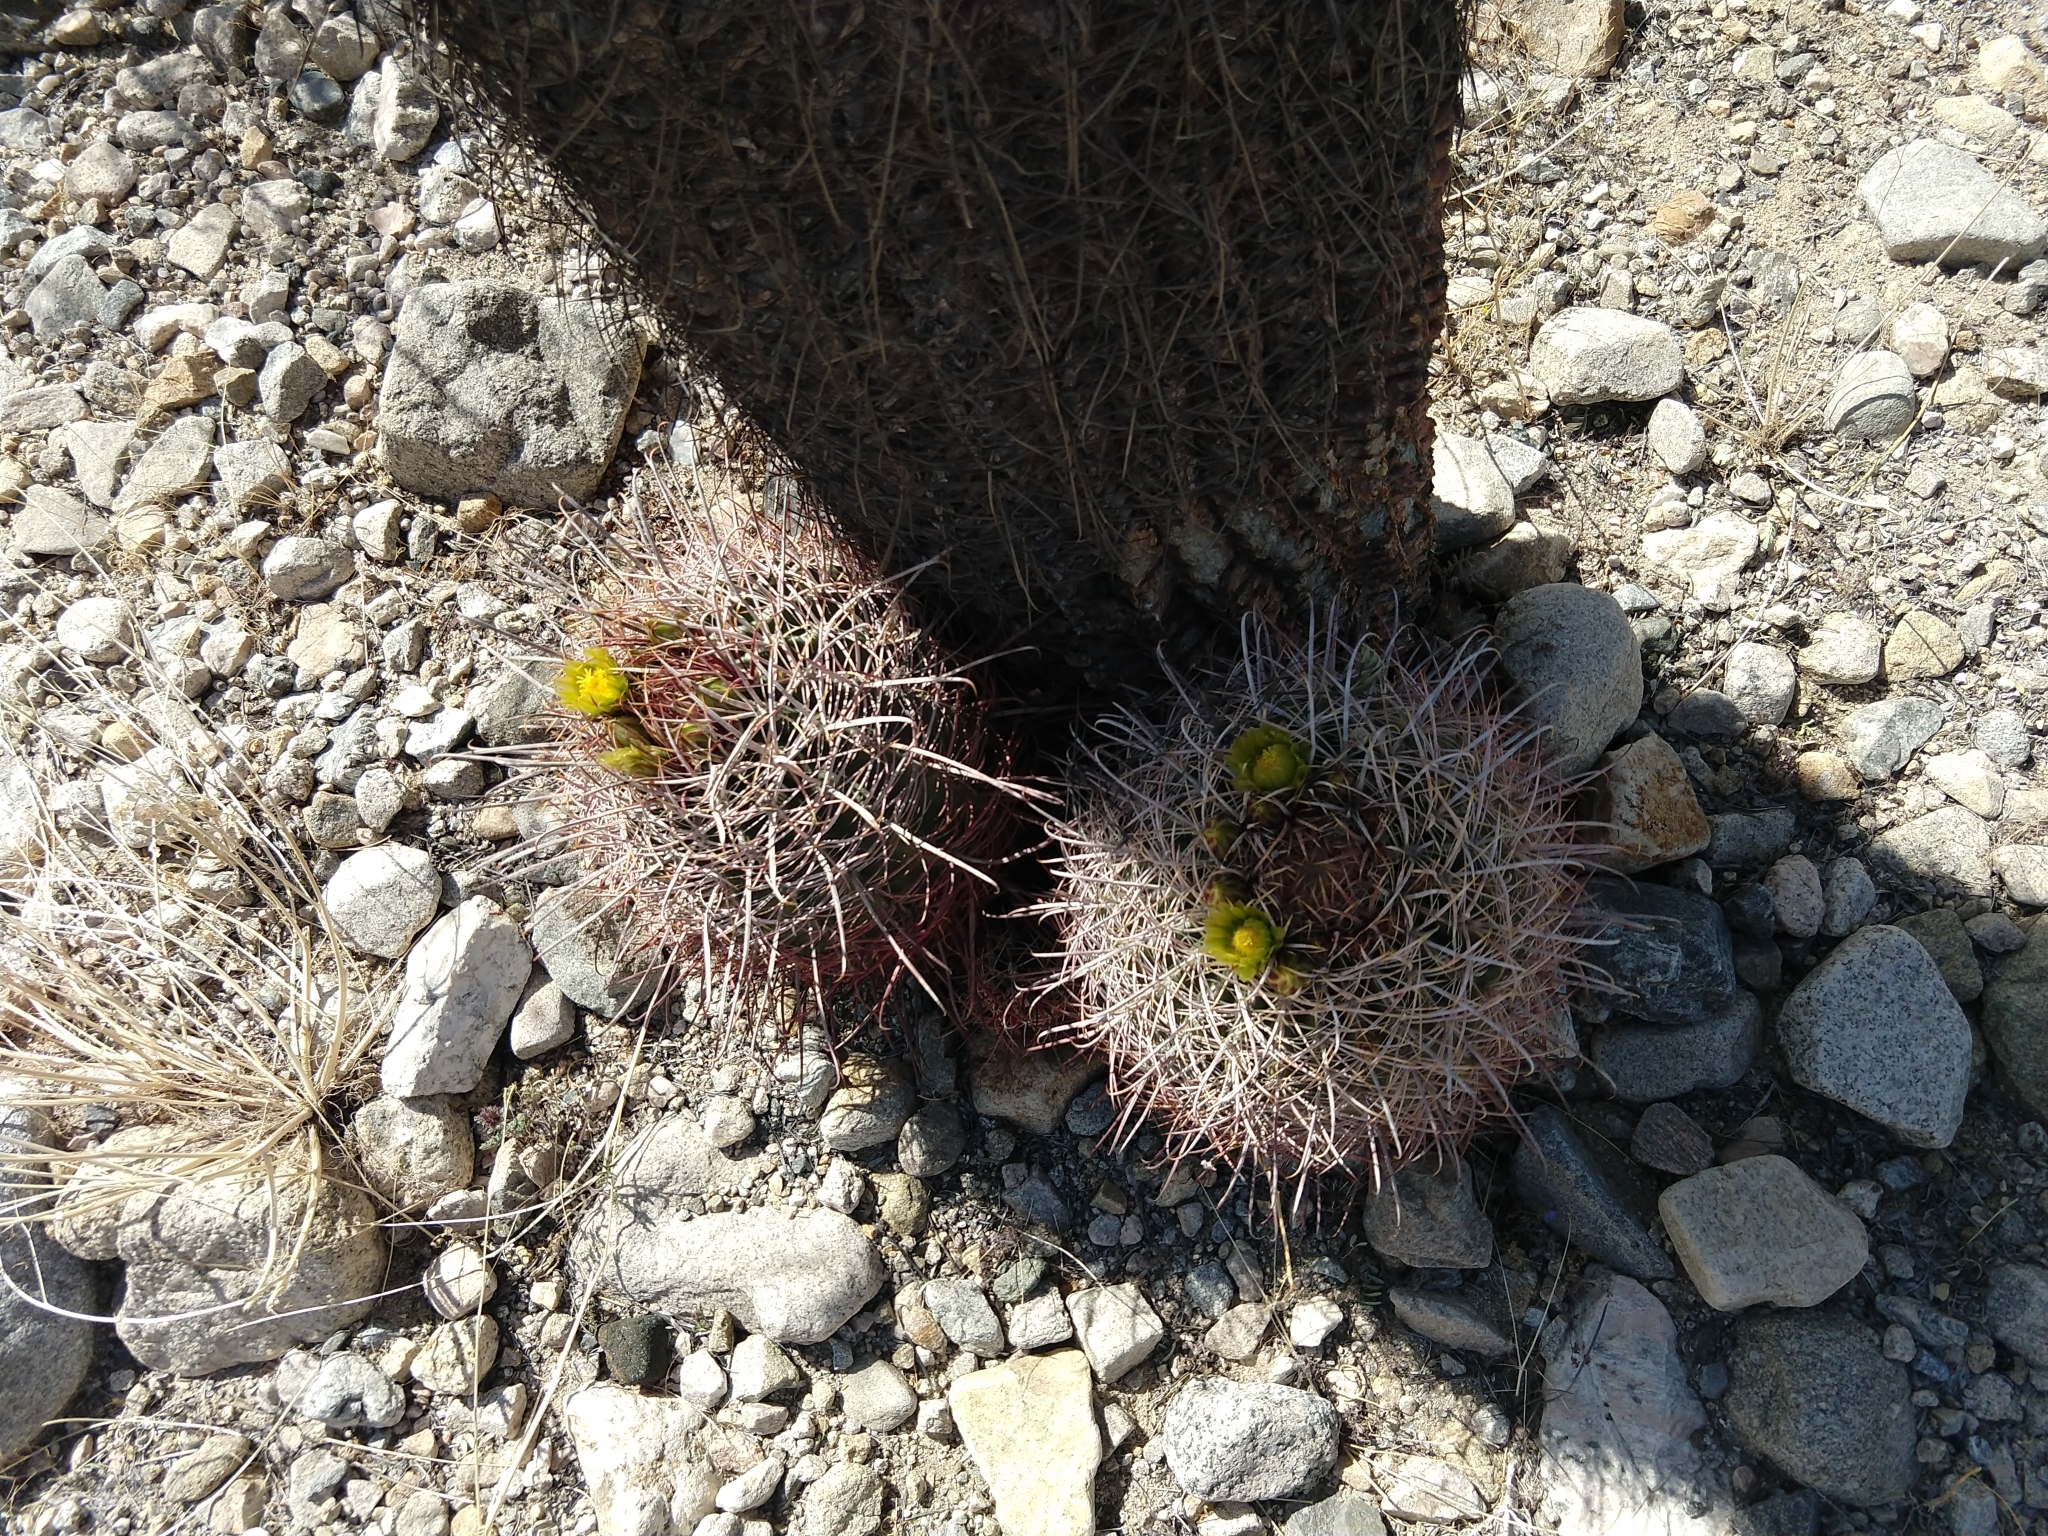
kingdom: Plantae
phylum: Tracheophyta
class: Magnoliopsida
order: Caryophyllales
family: Cactaceae
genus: Ferocactus
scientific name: Ferocactus cylindraceus
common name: California barrel cactus
